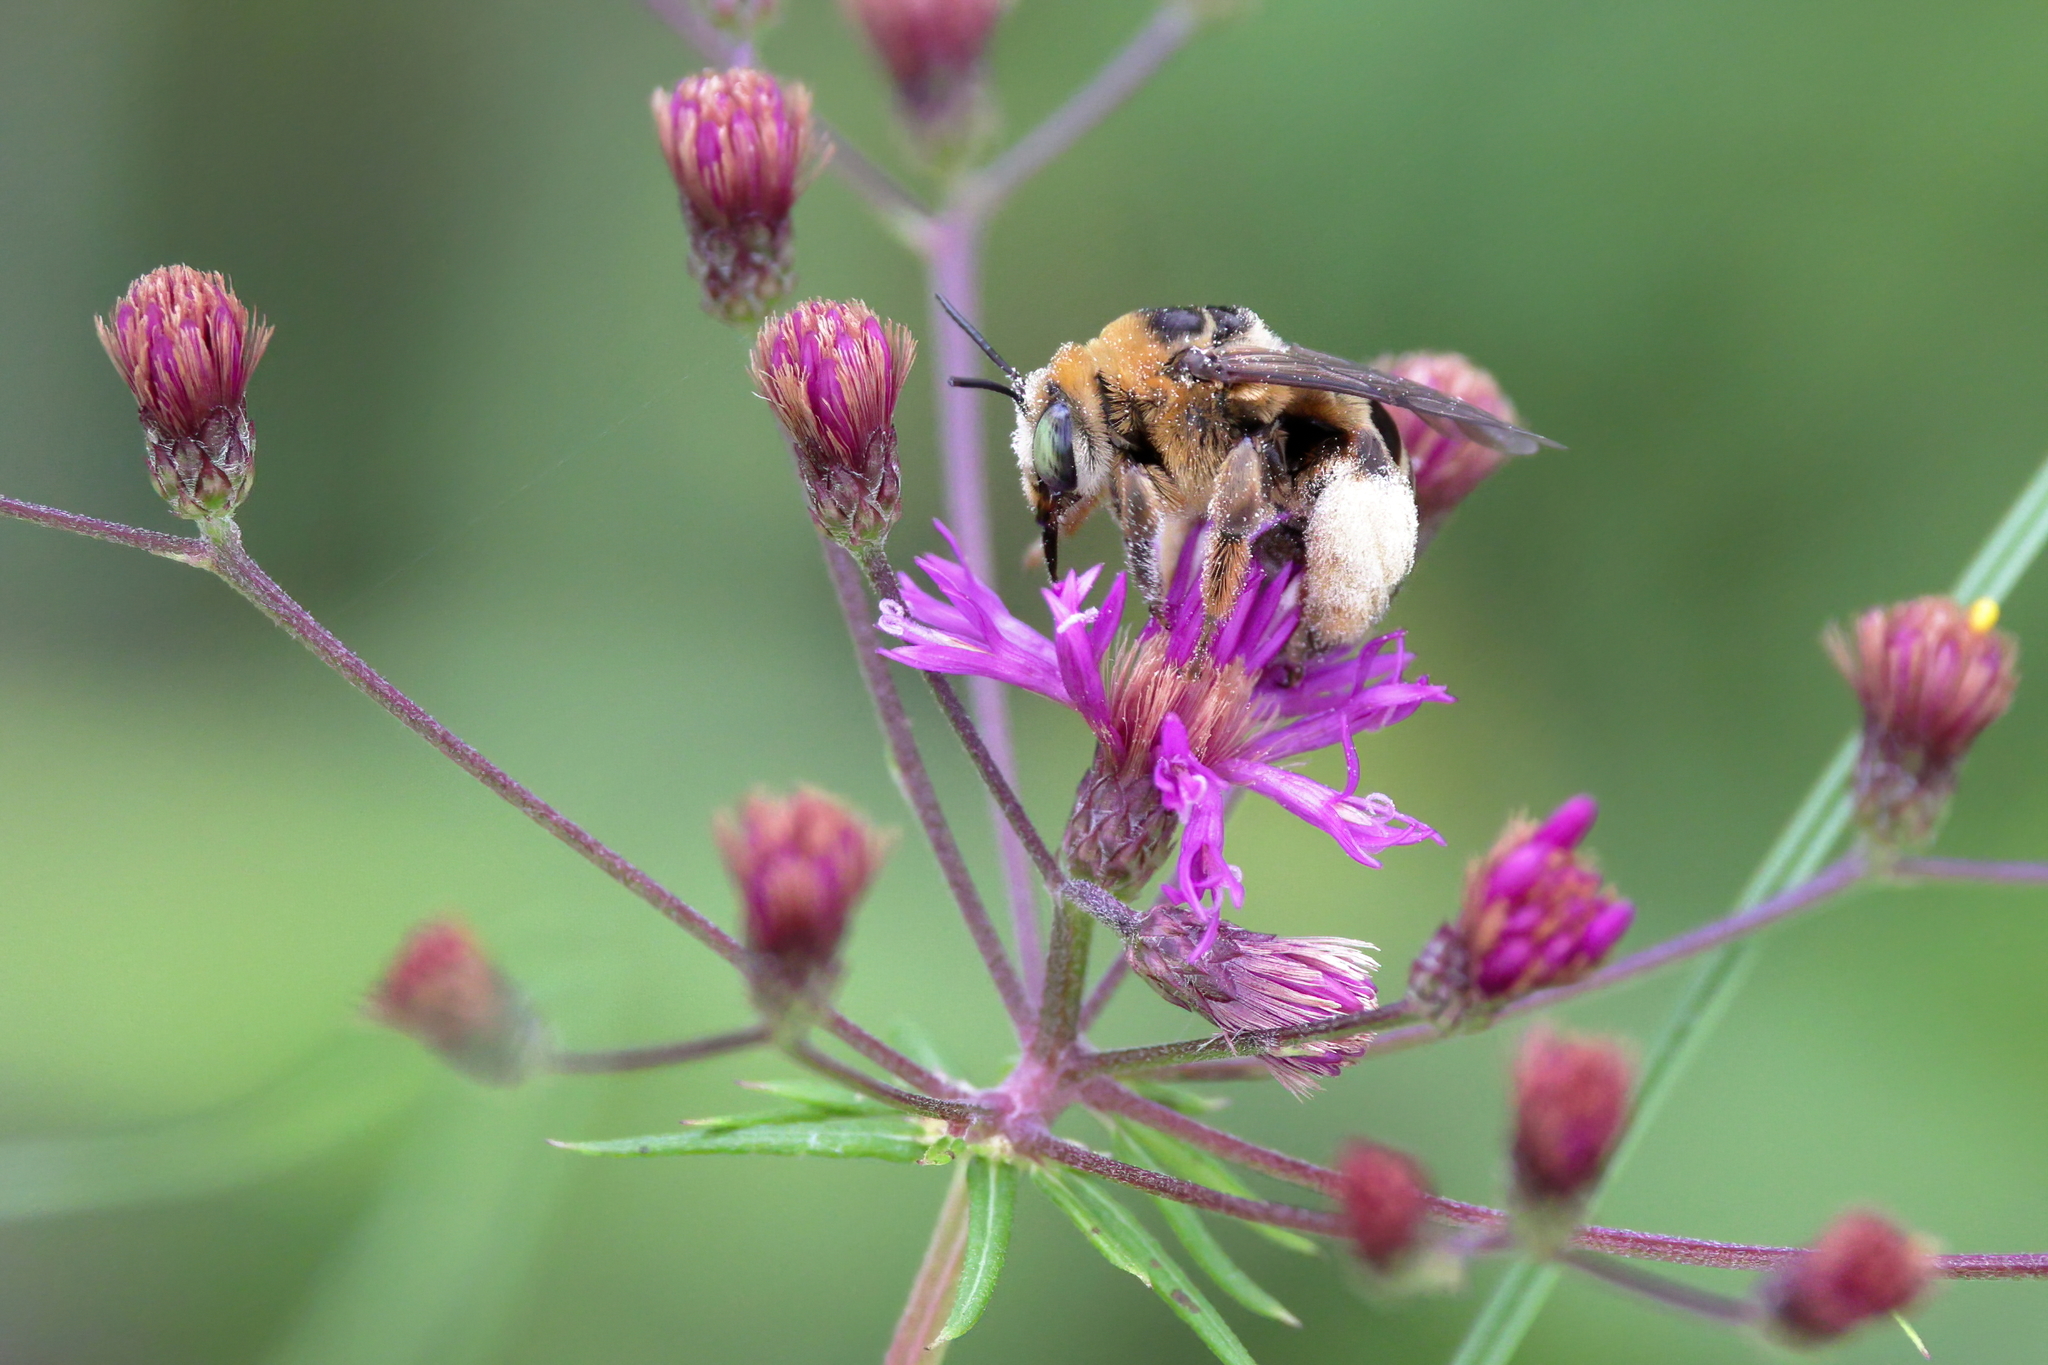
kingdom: Animalia
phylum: Arthropoda
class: Insecta
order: Hymenoptera
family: Apidae
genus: Svastra
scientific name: Svastra aegis
